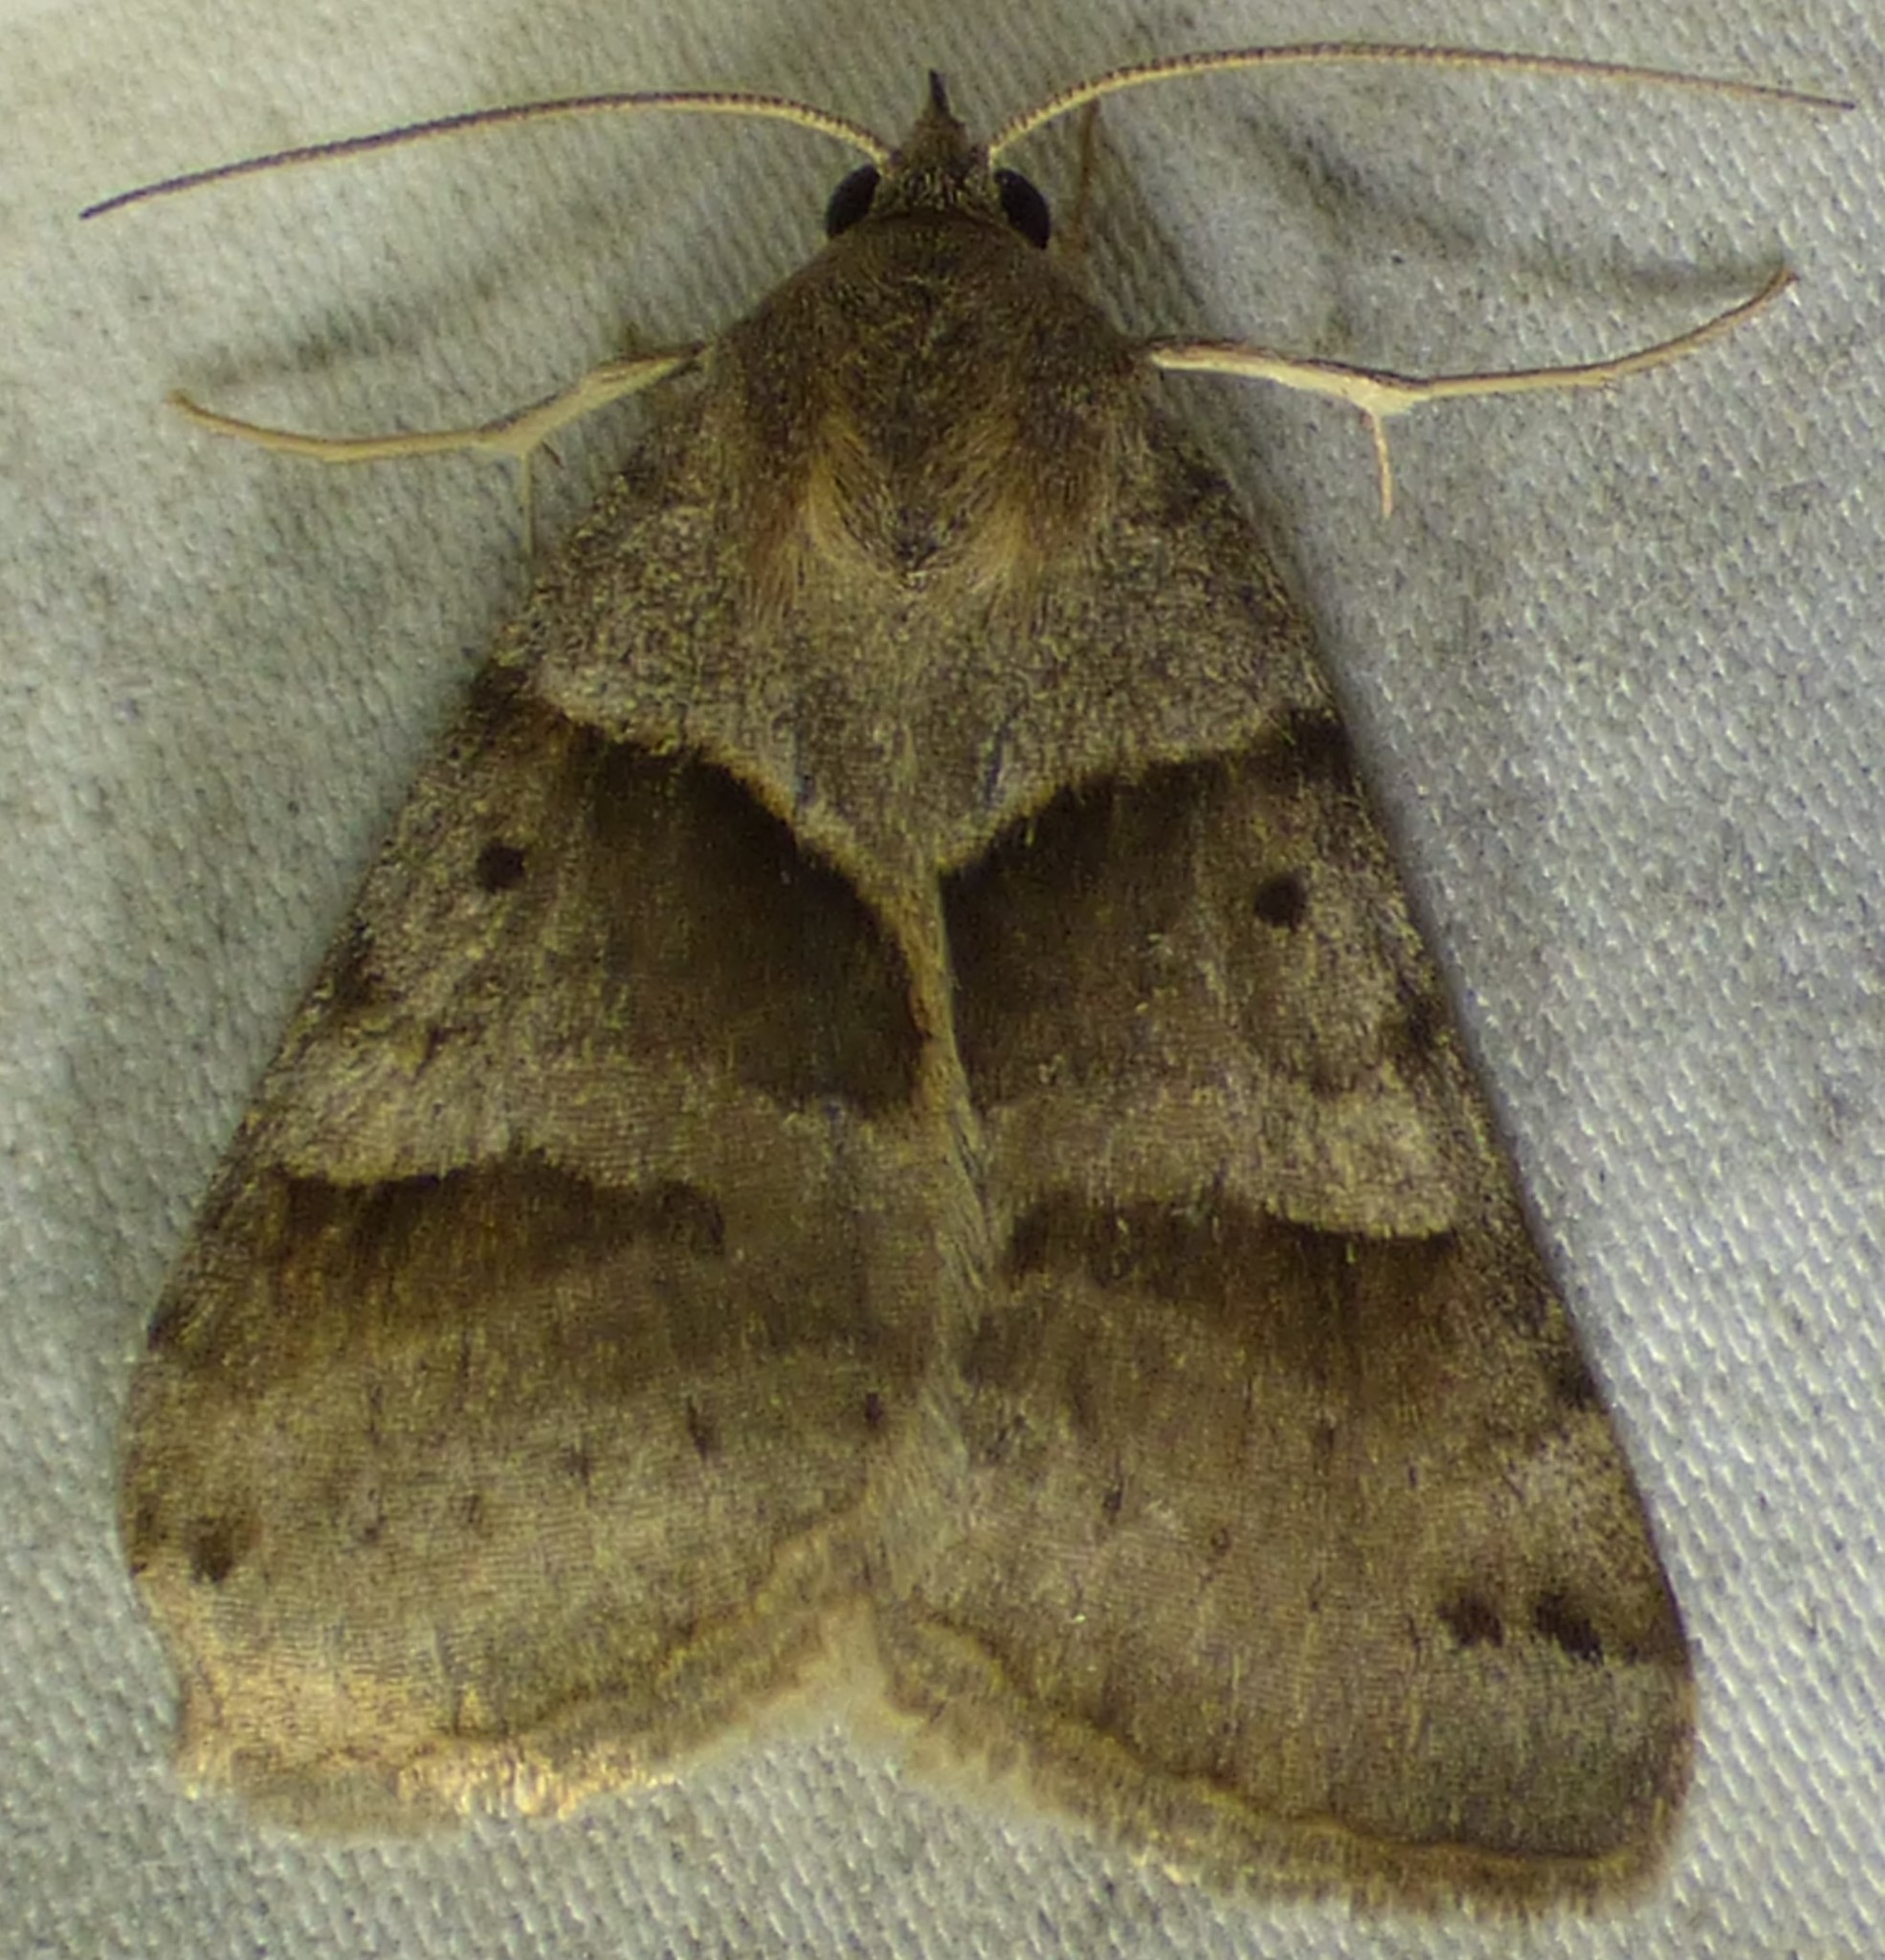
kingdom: Animalia
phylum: Arthropoda
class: Insecta
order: Lepidoptera
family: Erebidae
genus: Caenurgina
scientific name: Caenurgina erechtea
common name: Forage looper moth
